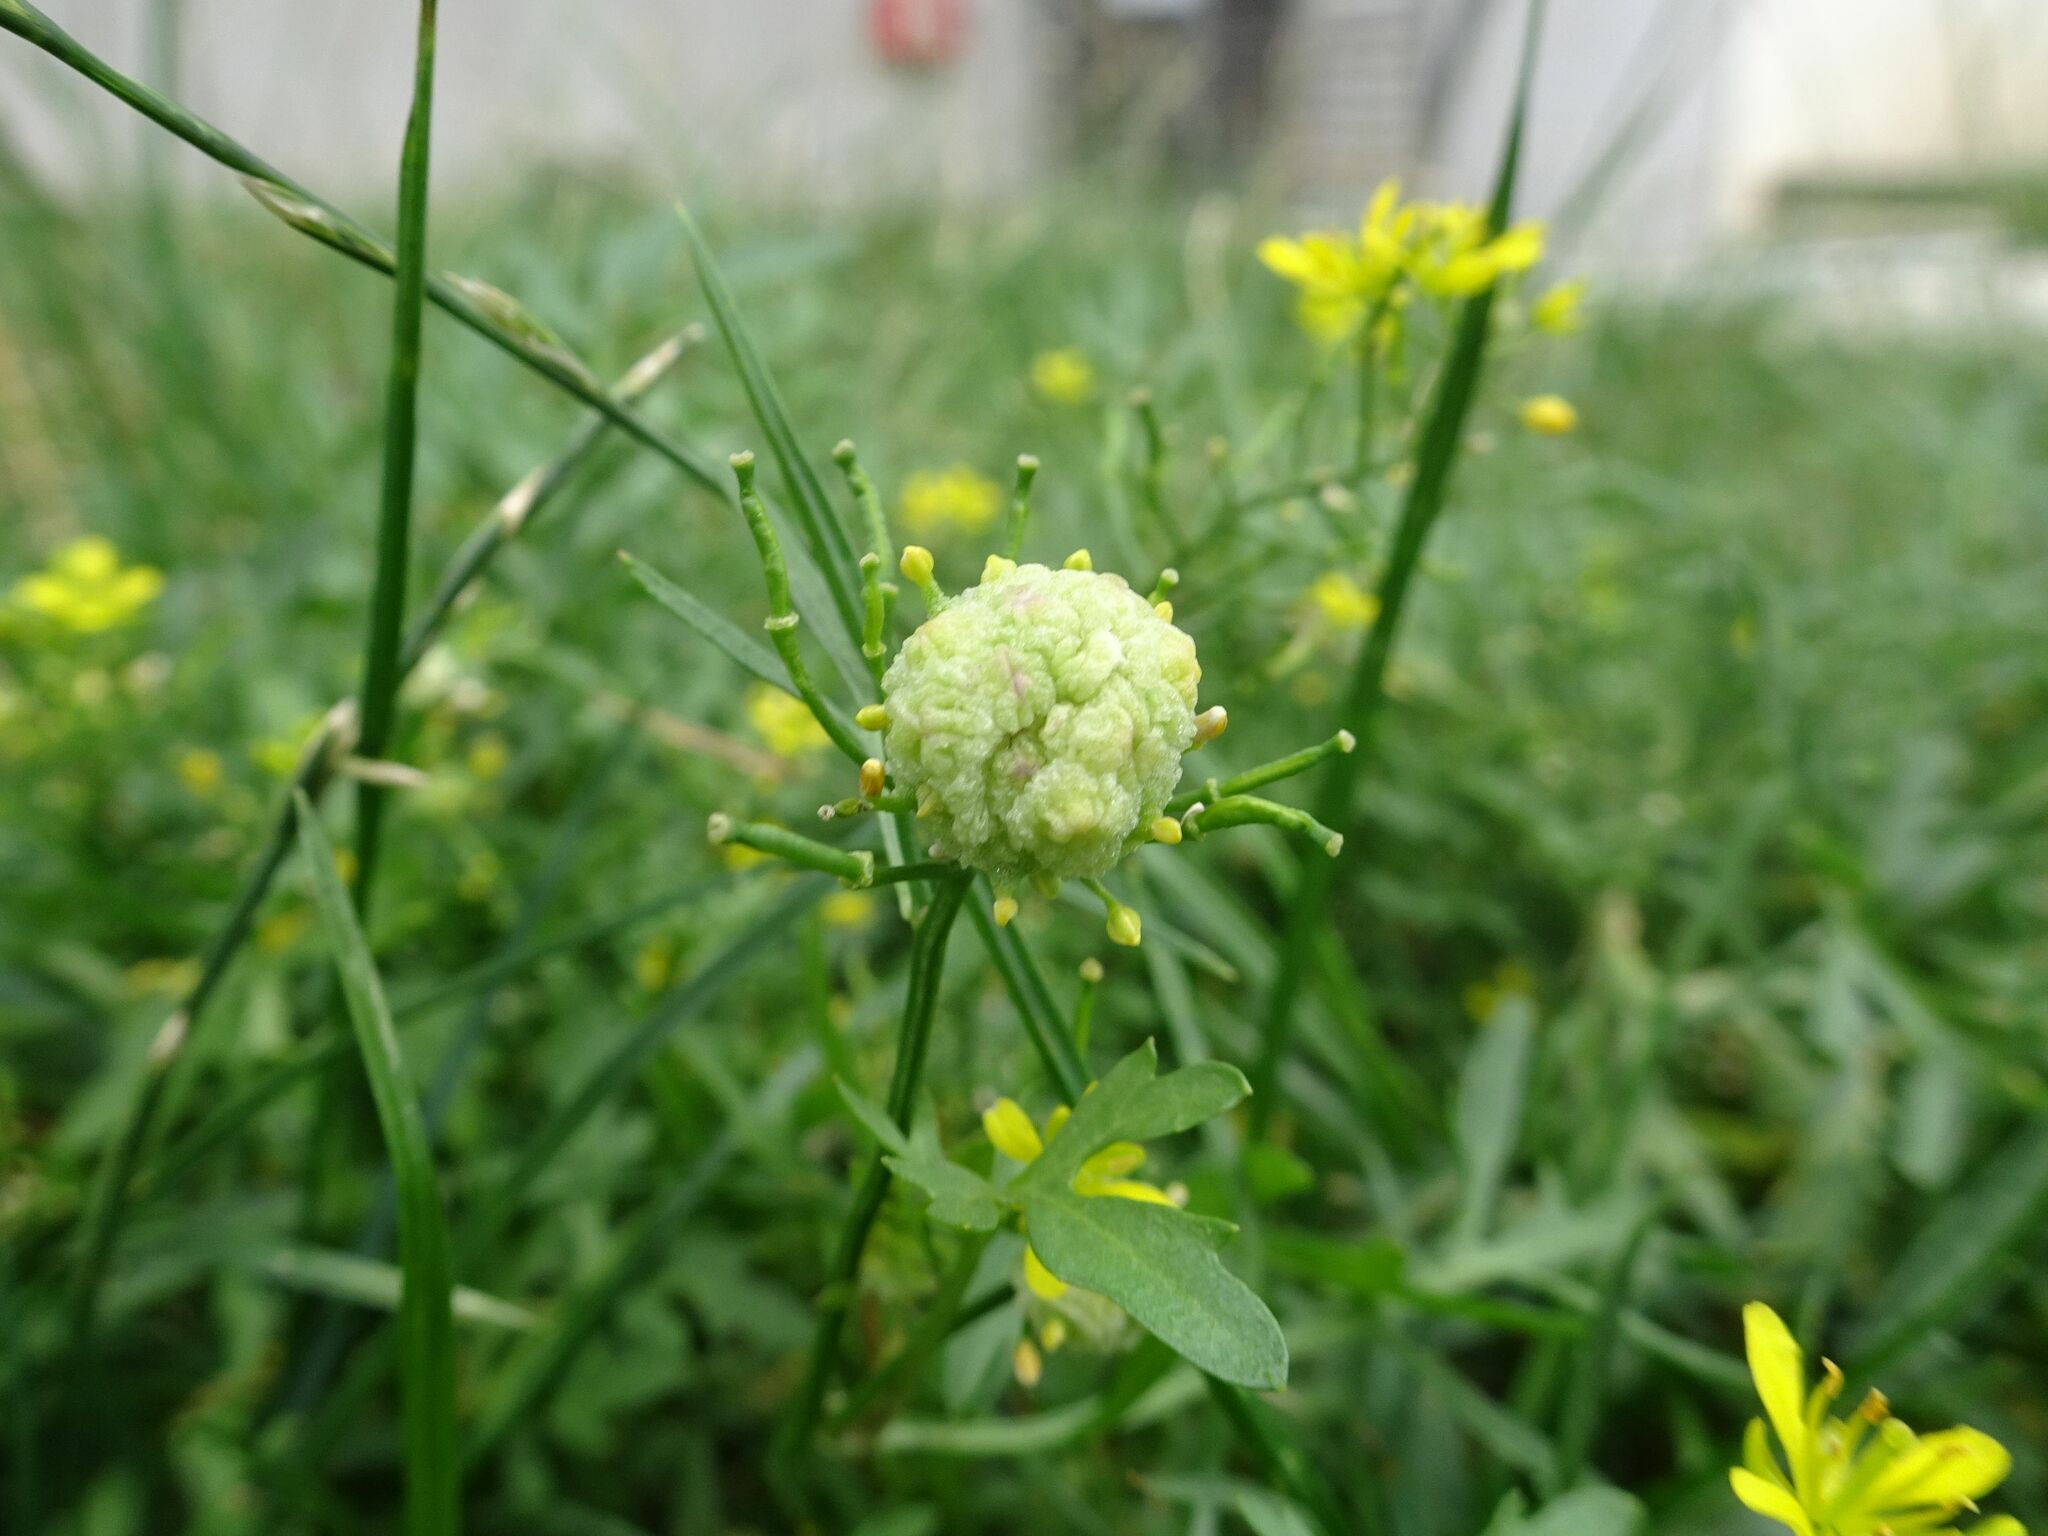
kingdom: Animalia
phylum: Arthropoda
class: Insecta
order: Diptera
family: Cecidomyiidae
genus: Dasineura
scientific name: Dasineura sisymbrii
